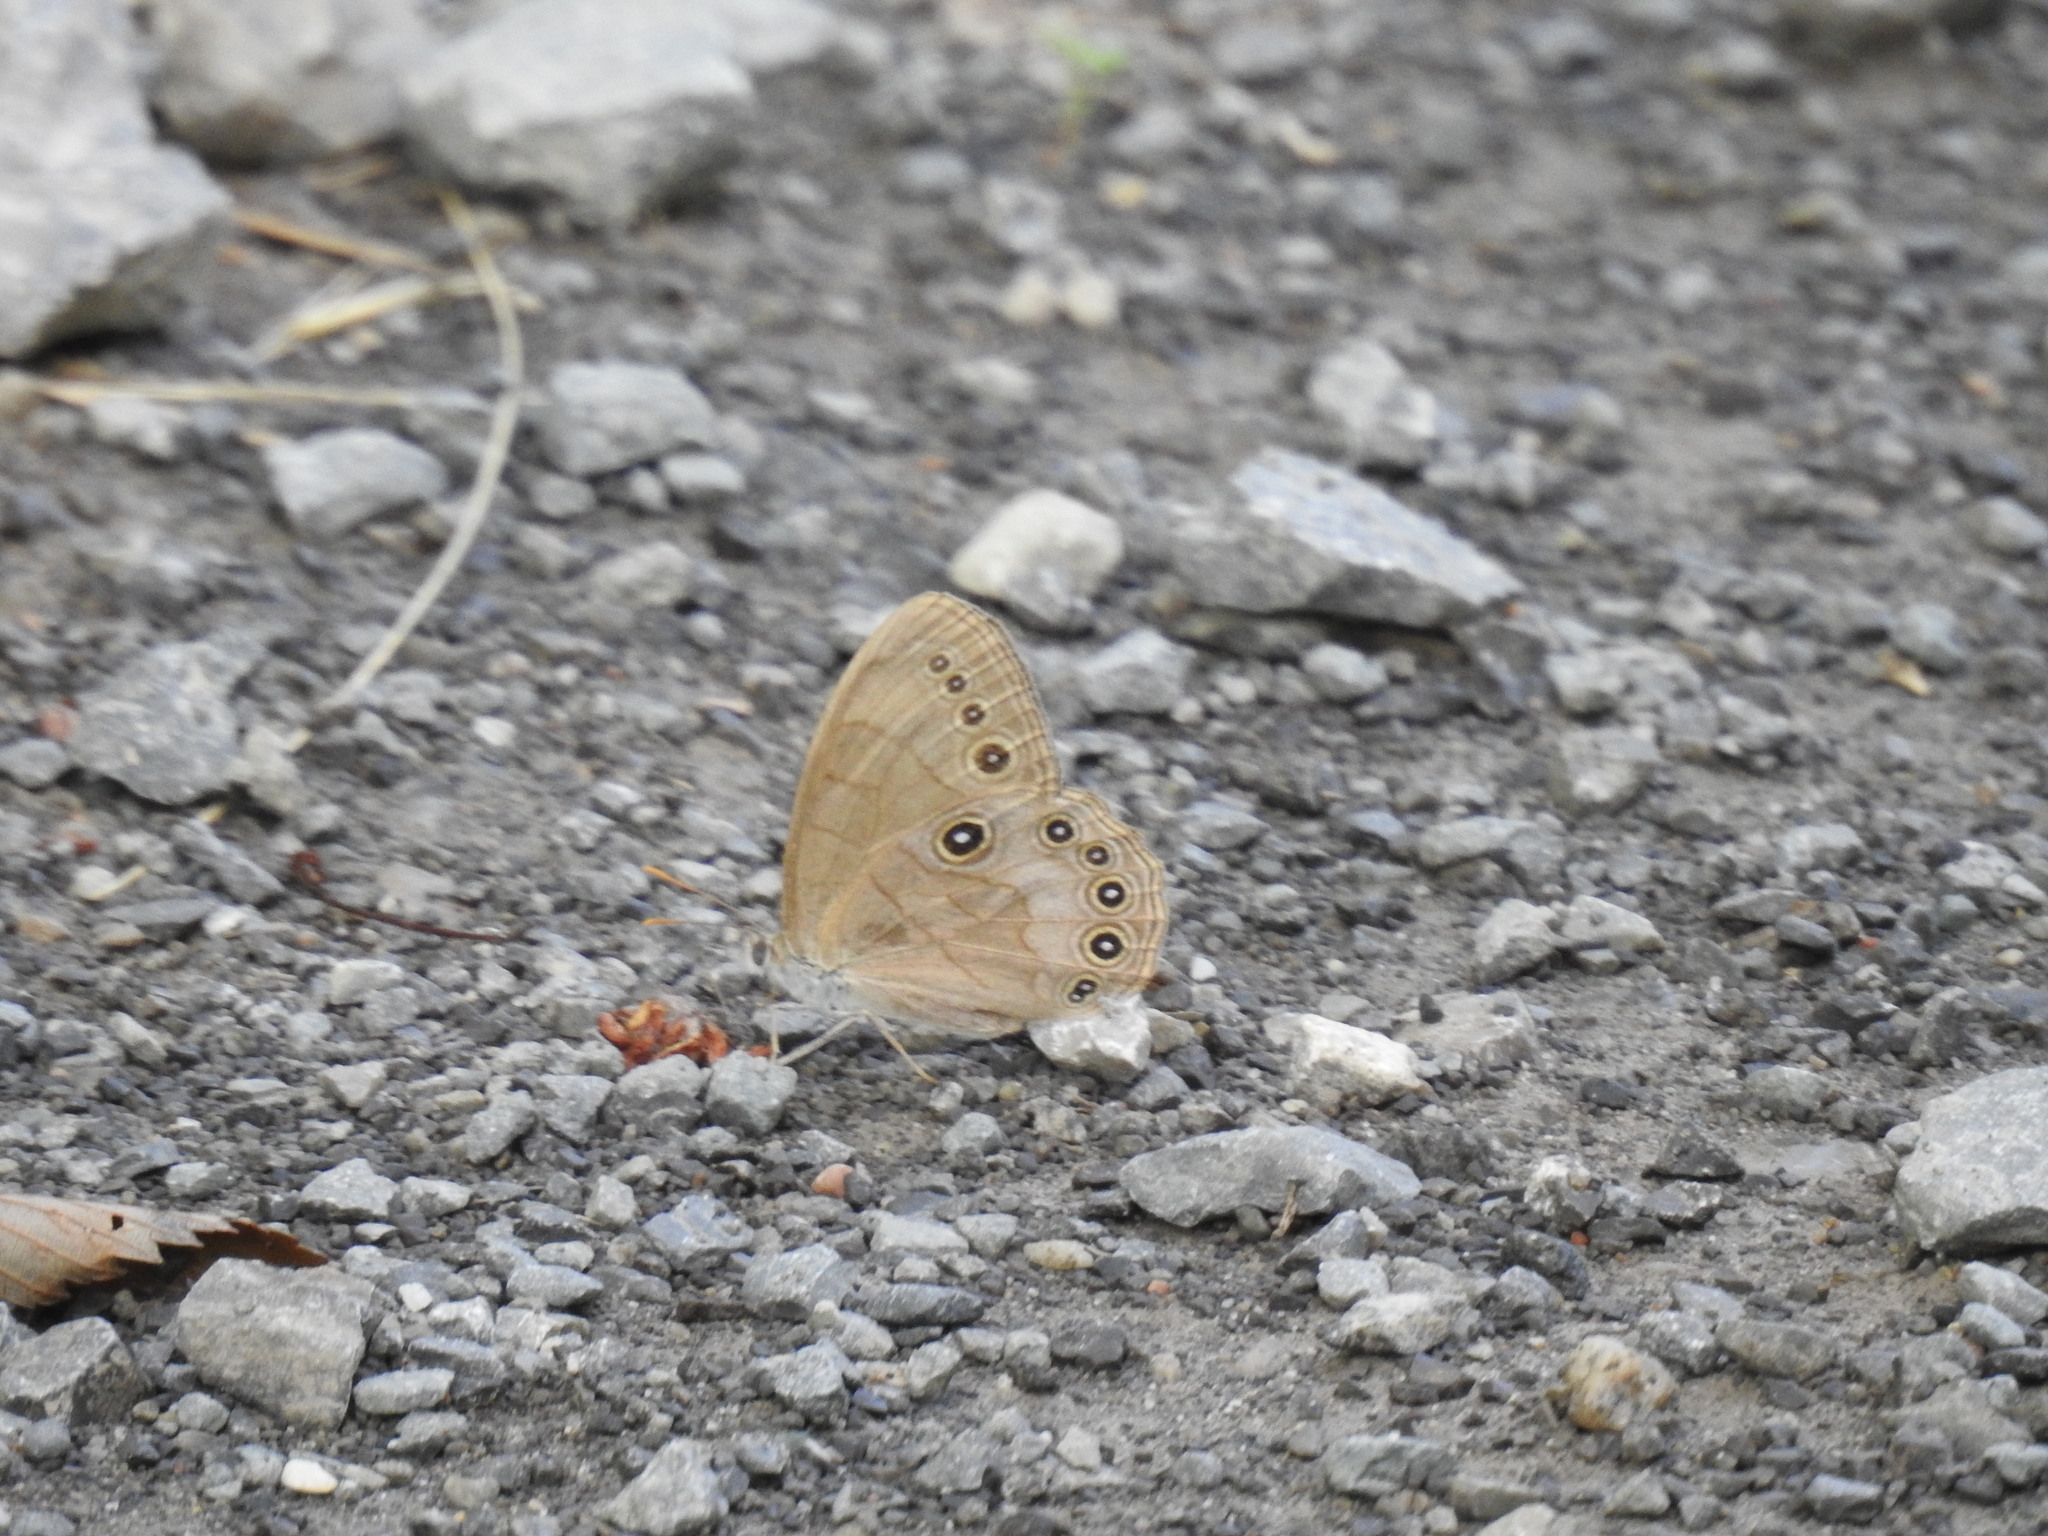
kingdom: Animalia
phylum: Arthropoda
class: Insecta
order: Lepidoptera
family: Nymphalidae
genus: Lethe
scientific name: Lethe eurydice
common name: Eyed brown
